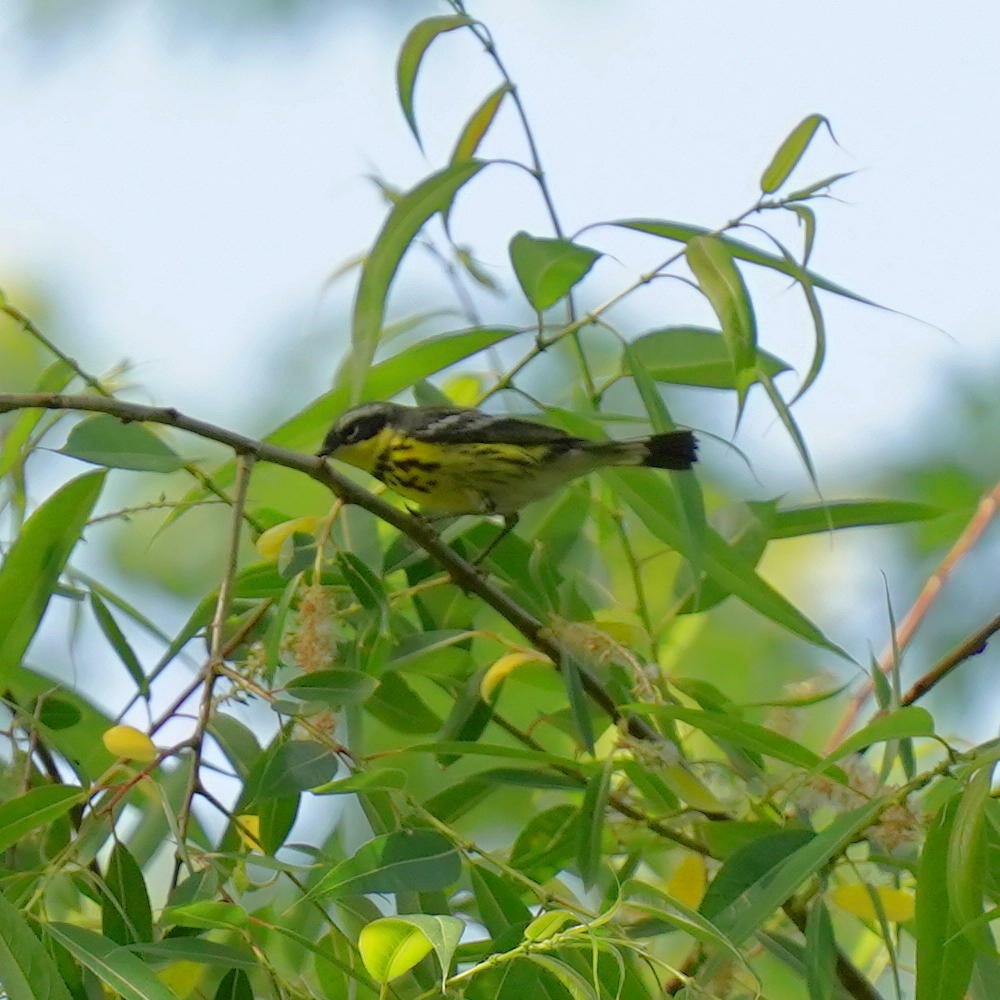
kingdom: Animalia
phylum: Chordata
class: Aves
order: Passeriformes
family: Parulidae
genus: Setophaga
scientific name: Setophaga magnolia
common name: Magnolia warbler
